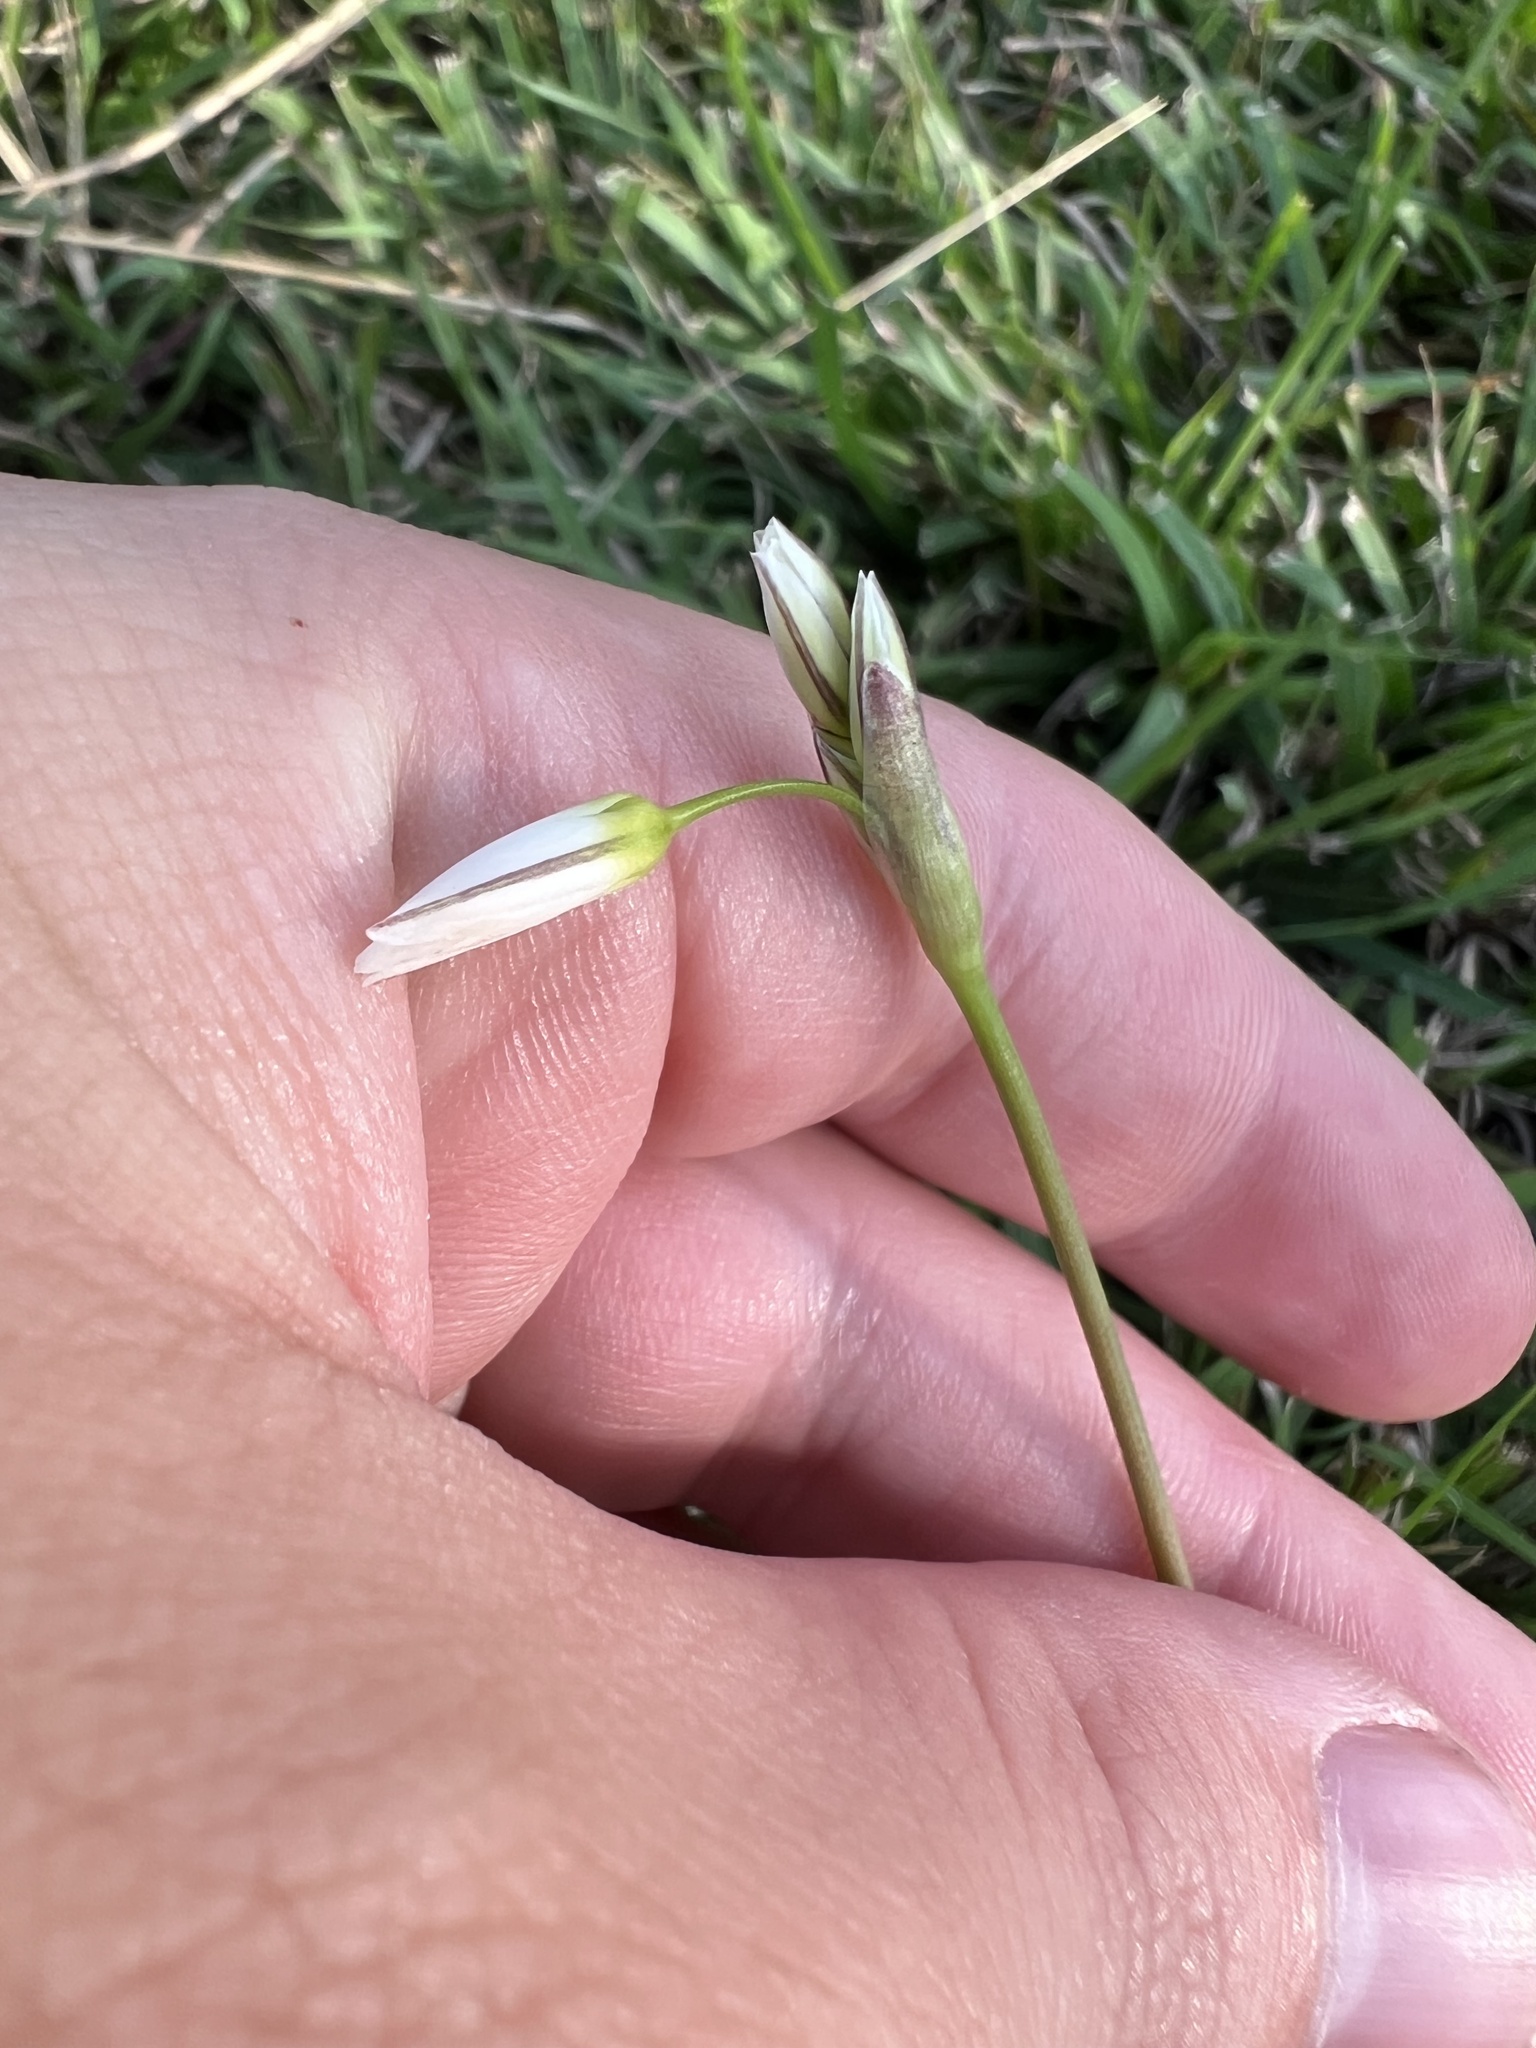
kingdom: Plantae
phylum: Tracheophyta
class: Liliopsida
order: Asparagales
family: Amaryllidaceae
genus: Nothoscordum
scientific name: Nothoscordum bivalve
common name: Crow-poison
